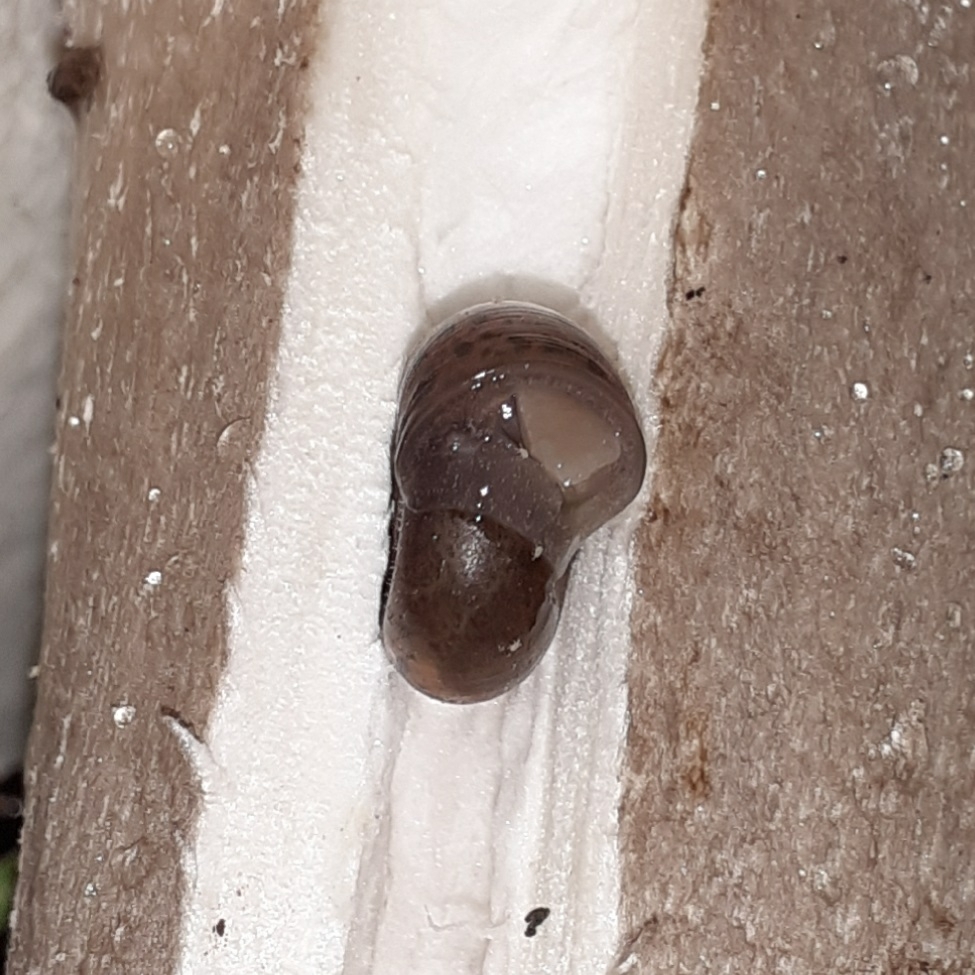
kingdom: Animalia
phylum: Mollusca
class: Gastropoda
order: Stylommatophora
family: Elonidae
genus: Elona
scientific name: Elona quimperiana
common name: Quimper snail
